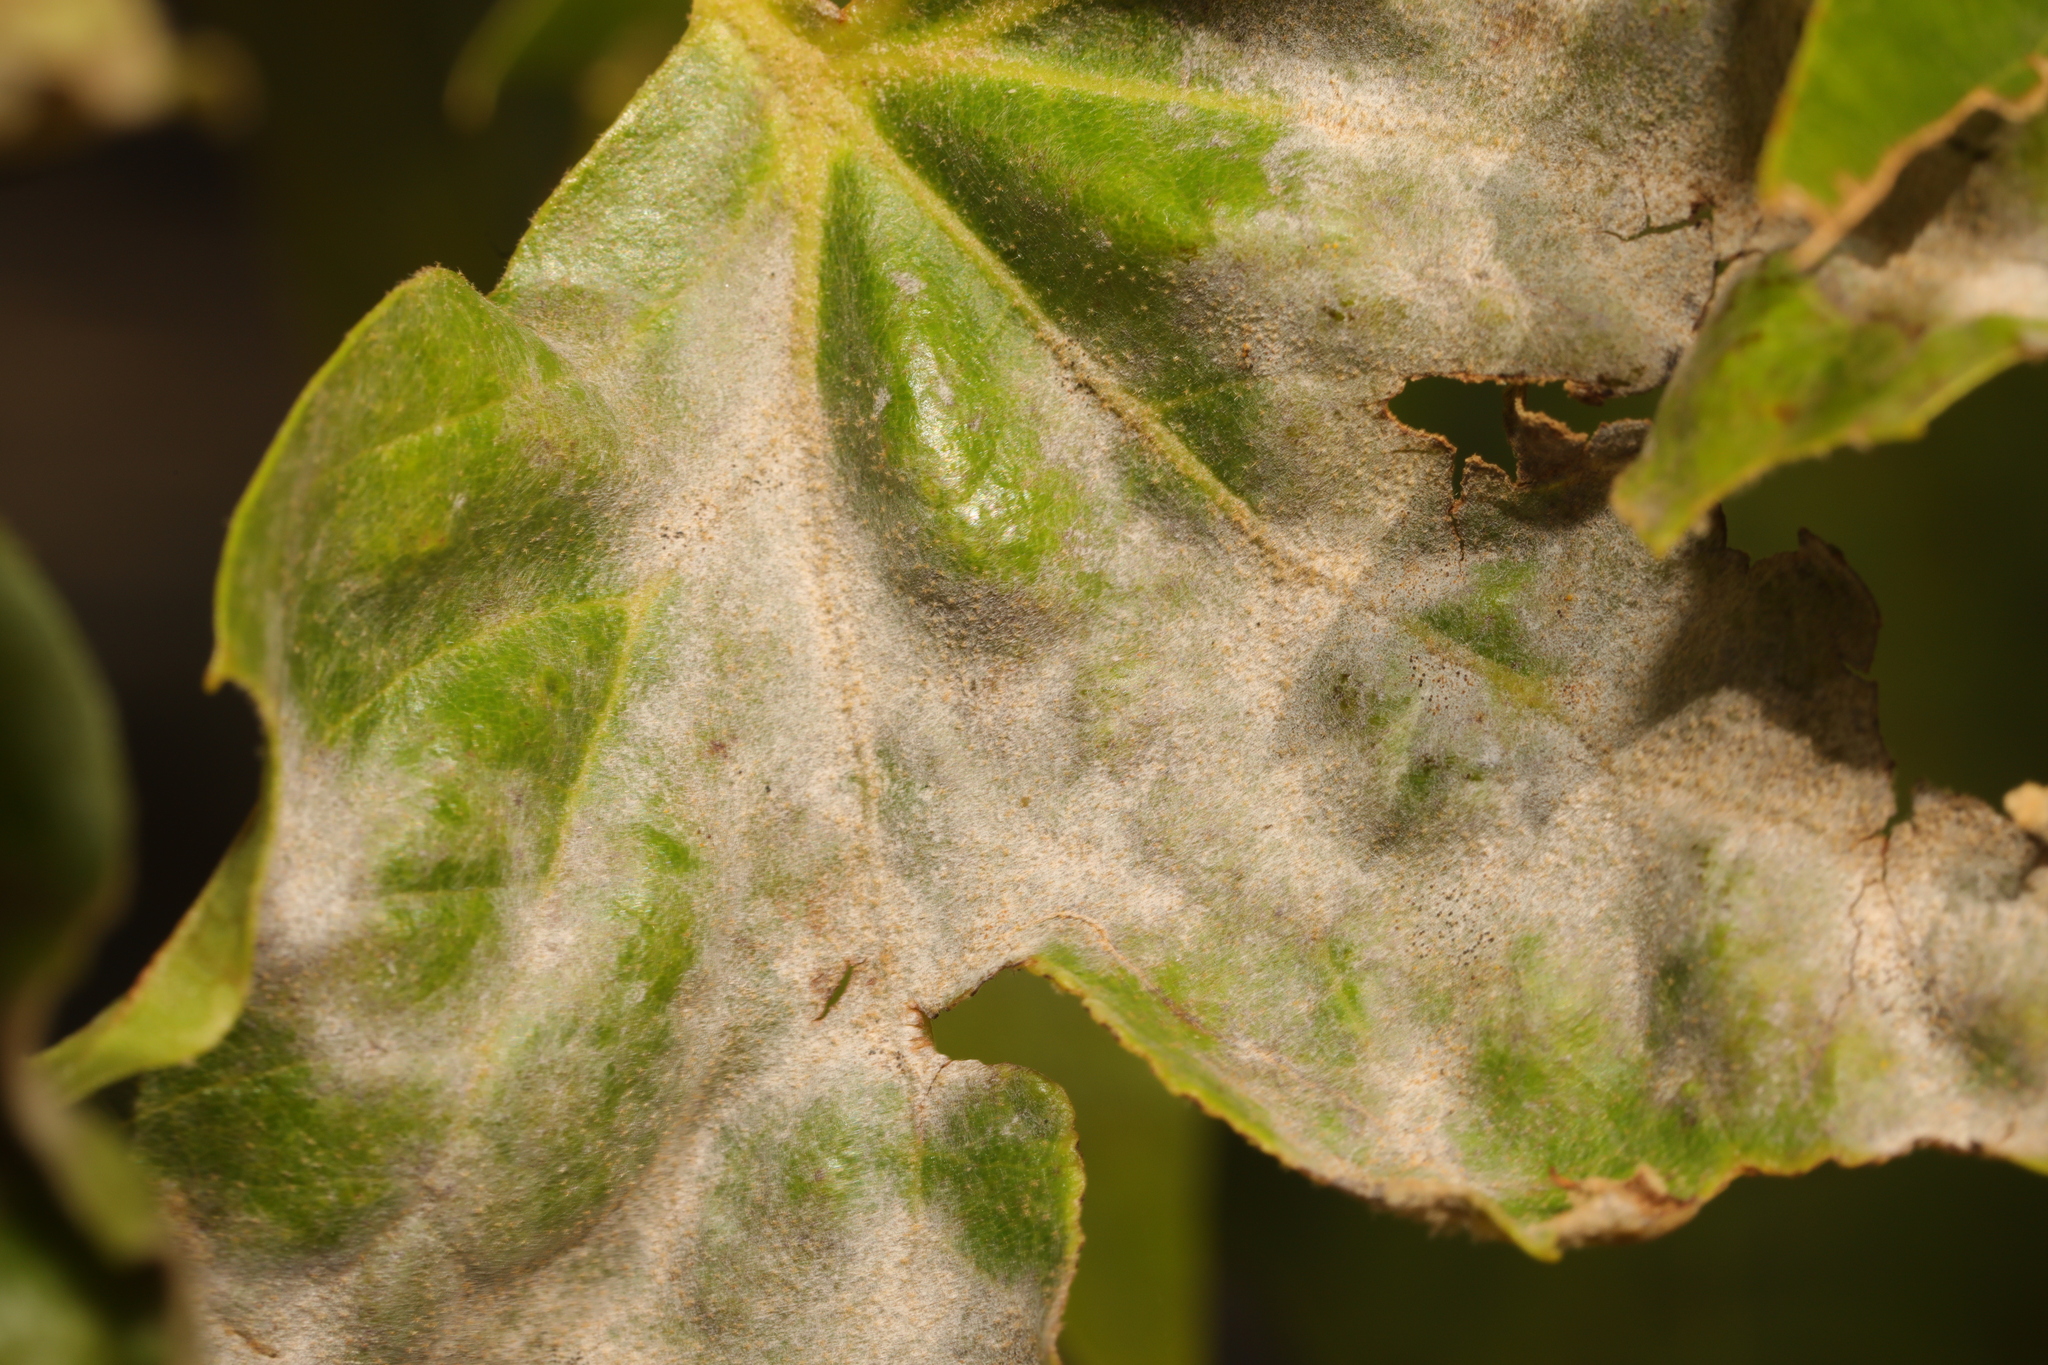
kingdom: Fungi
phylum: Ascomycota
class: Leotiomycetes
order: Helotiales
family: Erysiphaceae
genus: Erysiphe
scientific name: Erysiphe platani
